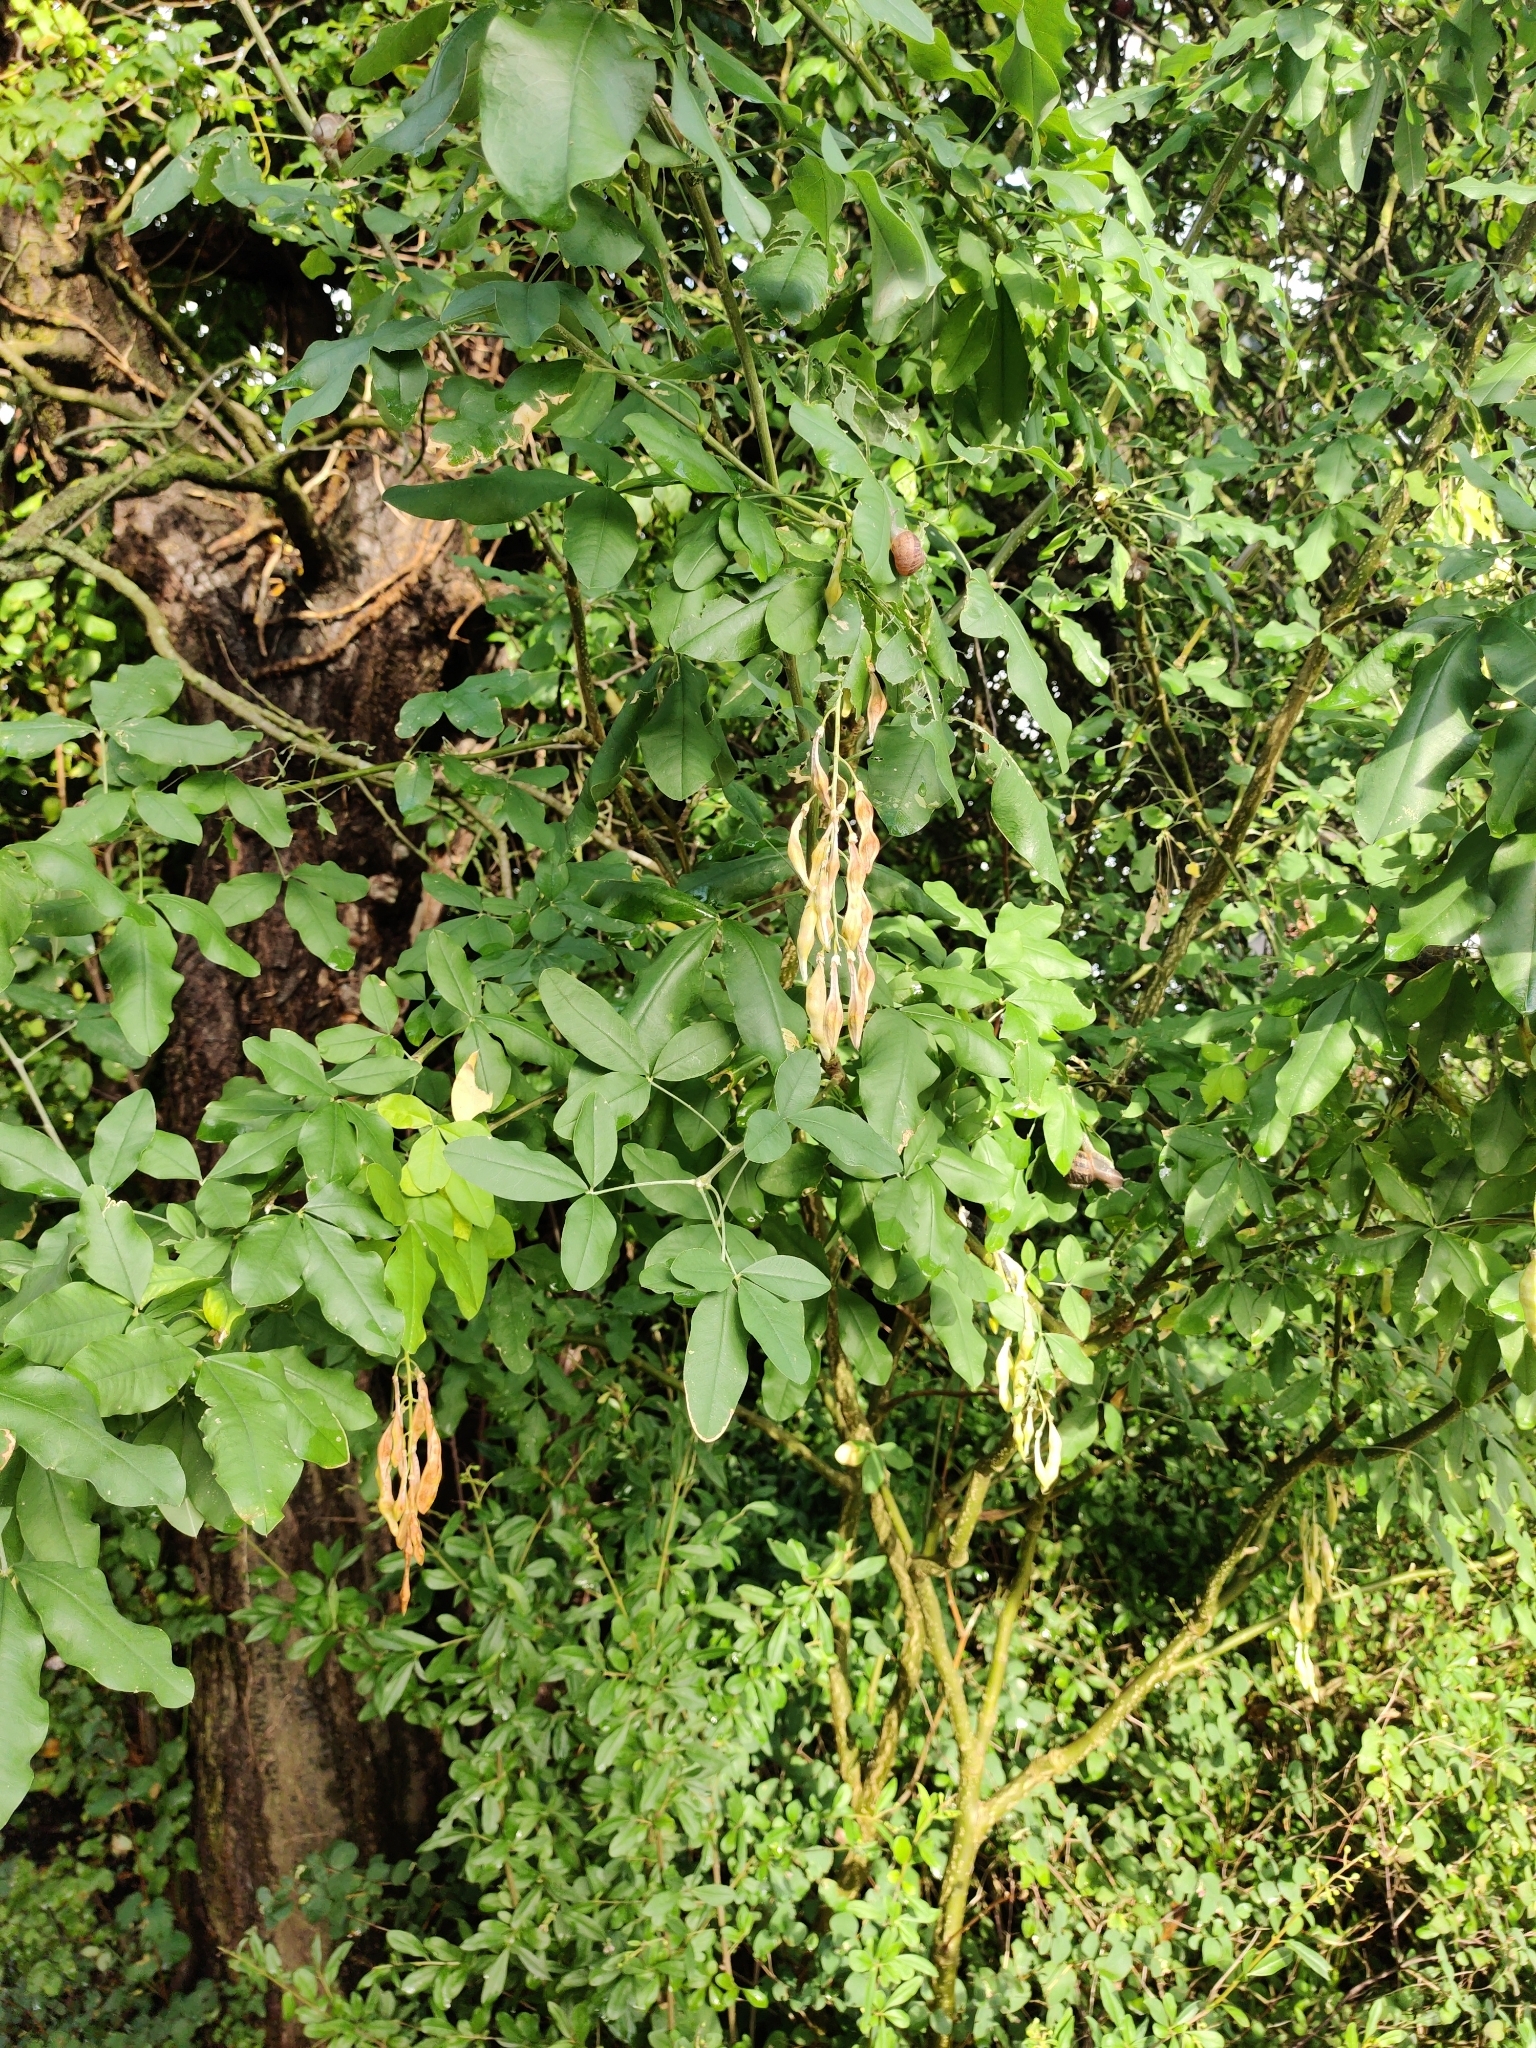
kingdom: Plantae
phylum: Tracheophyta
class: Magnoliopsida
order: Fabales
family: Fabaceae
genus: Laburnum
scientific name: Laburnum anagyroides
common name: Laburnum
